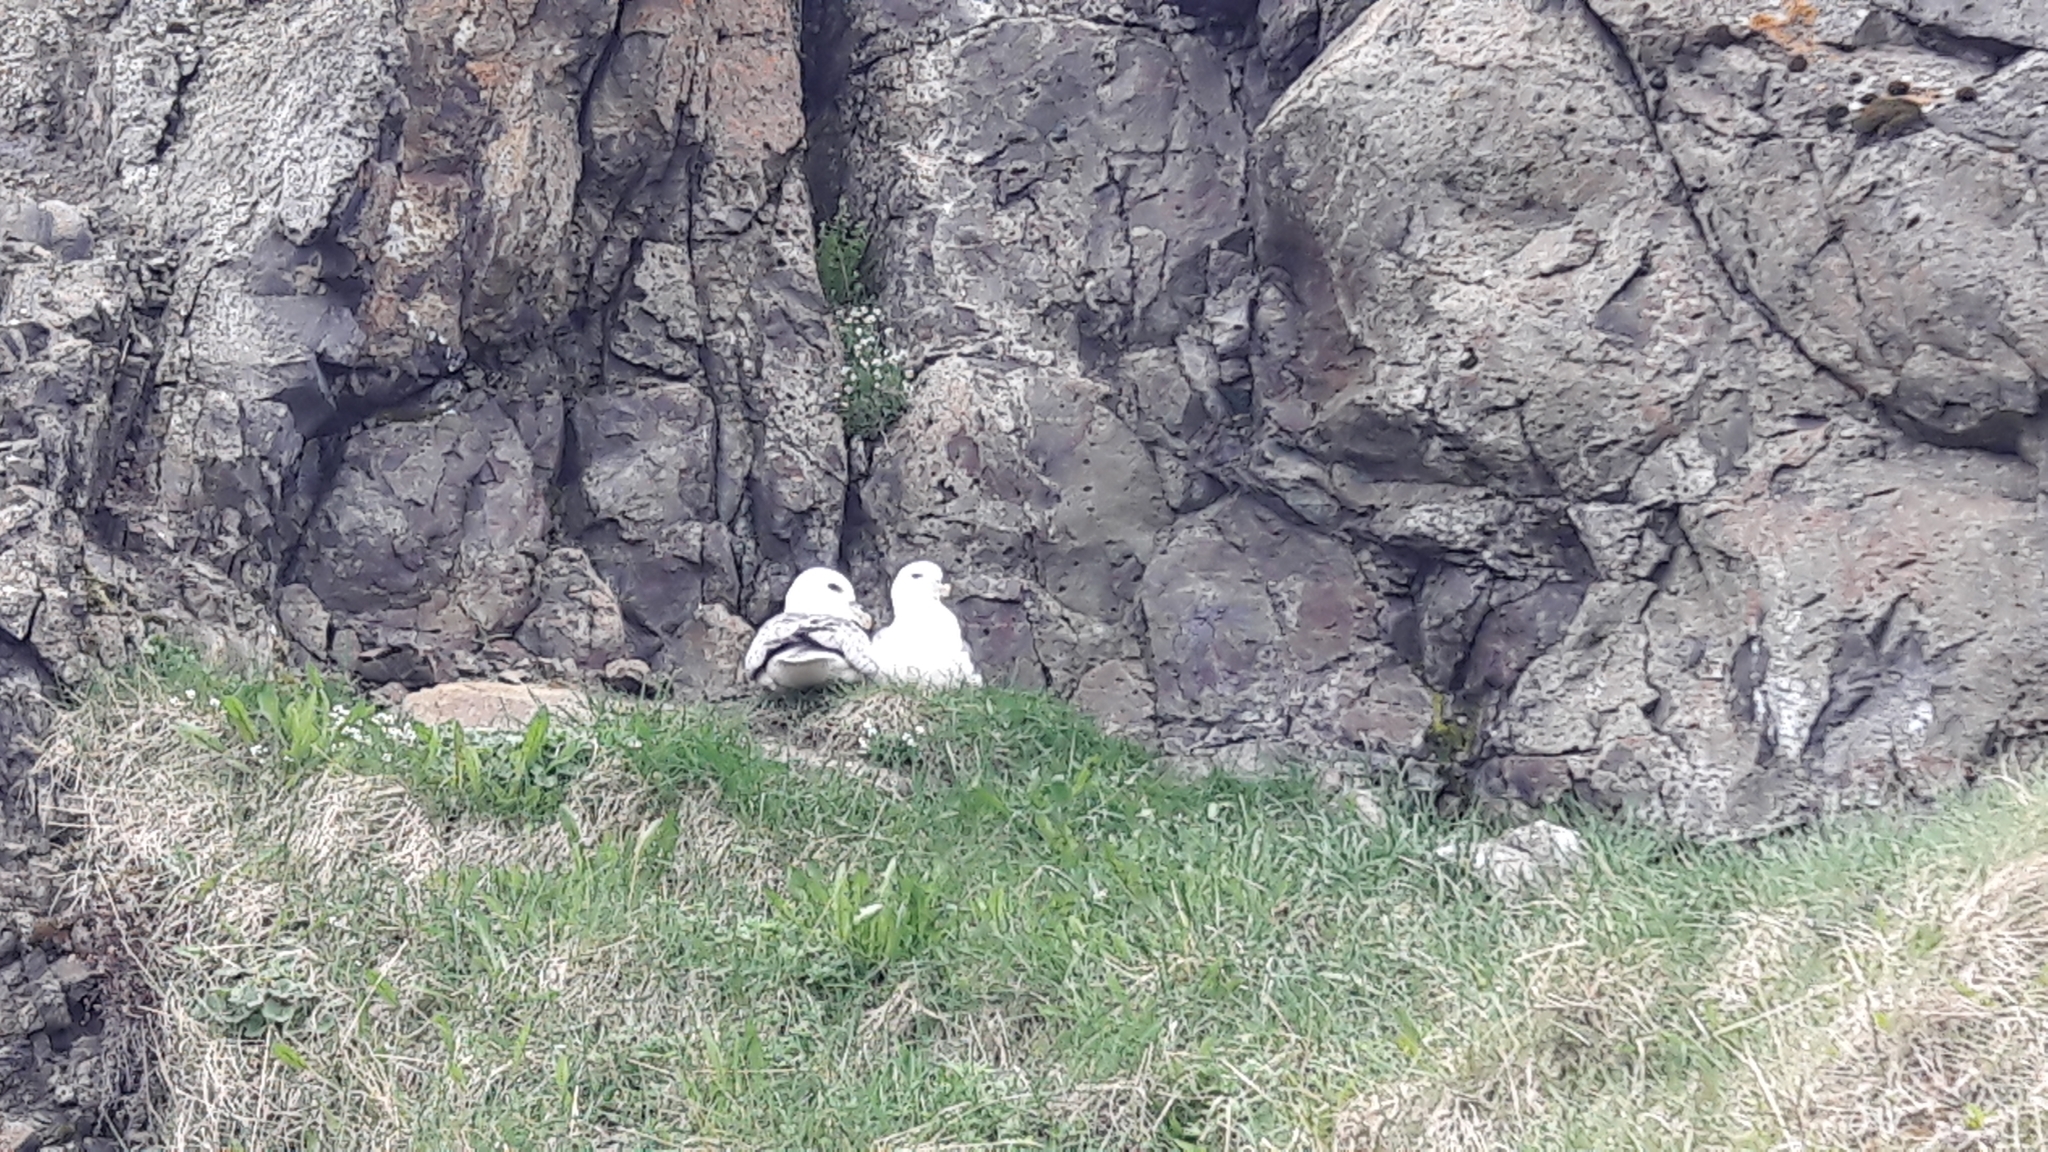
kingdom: Animalia
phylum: Chordata
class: Aves
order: Procellariiformes
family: Procellariidae
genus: Fulmarus
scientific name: Fulmarus glacialis
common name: Northern fulmar
